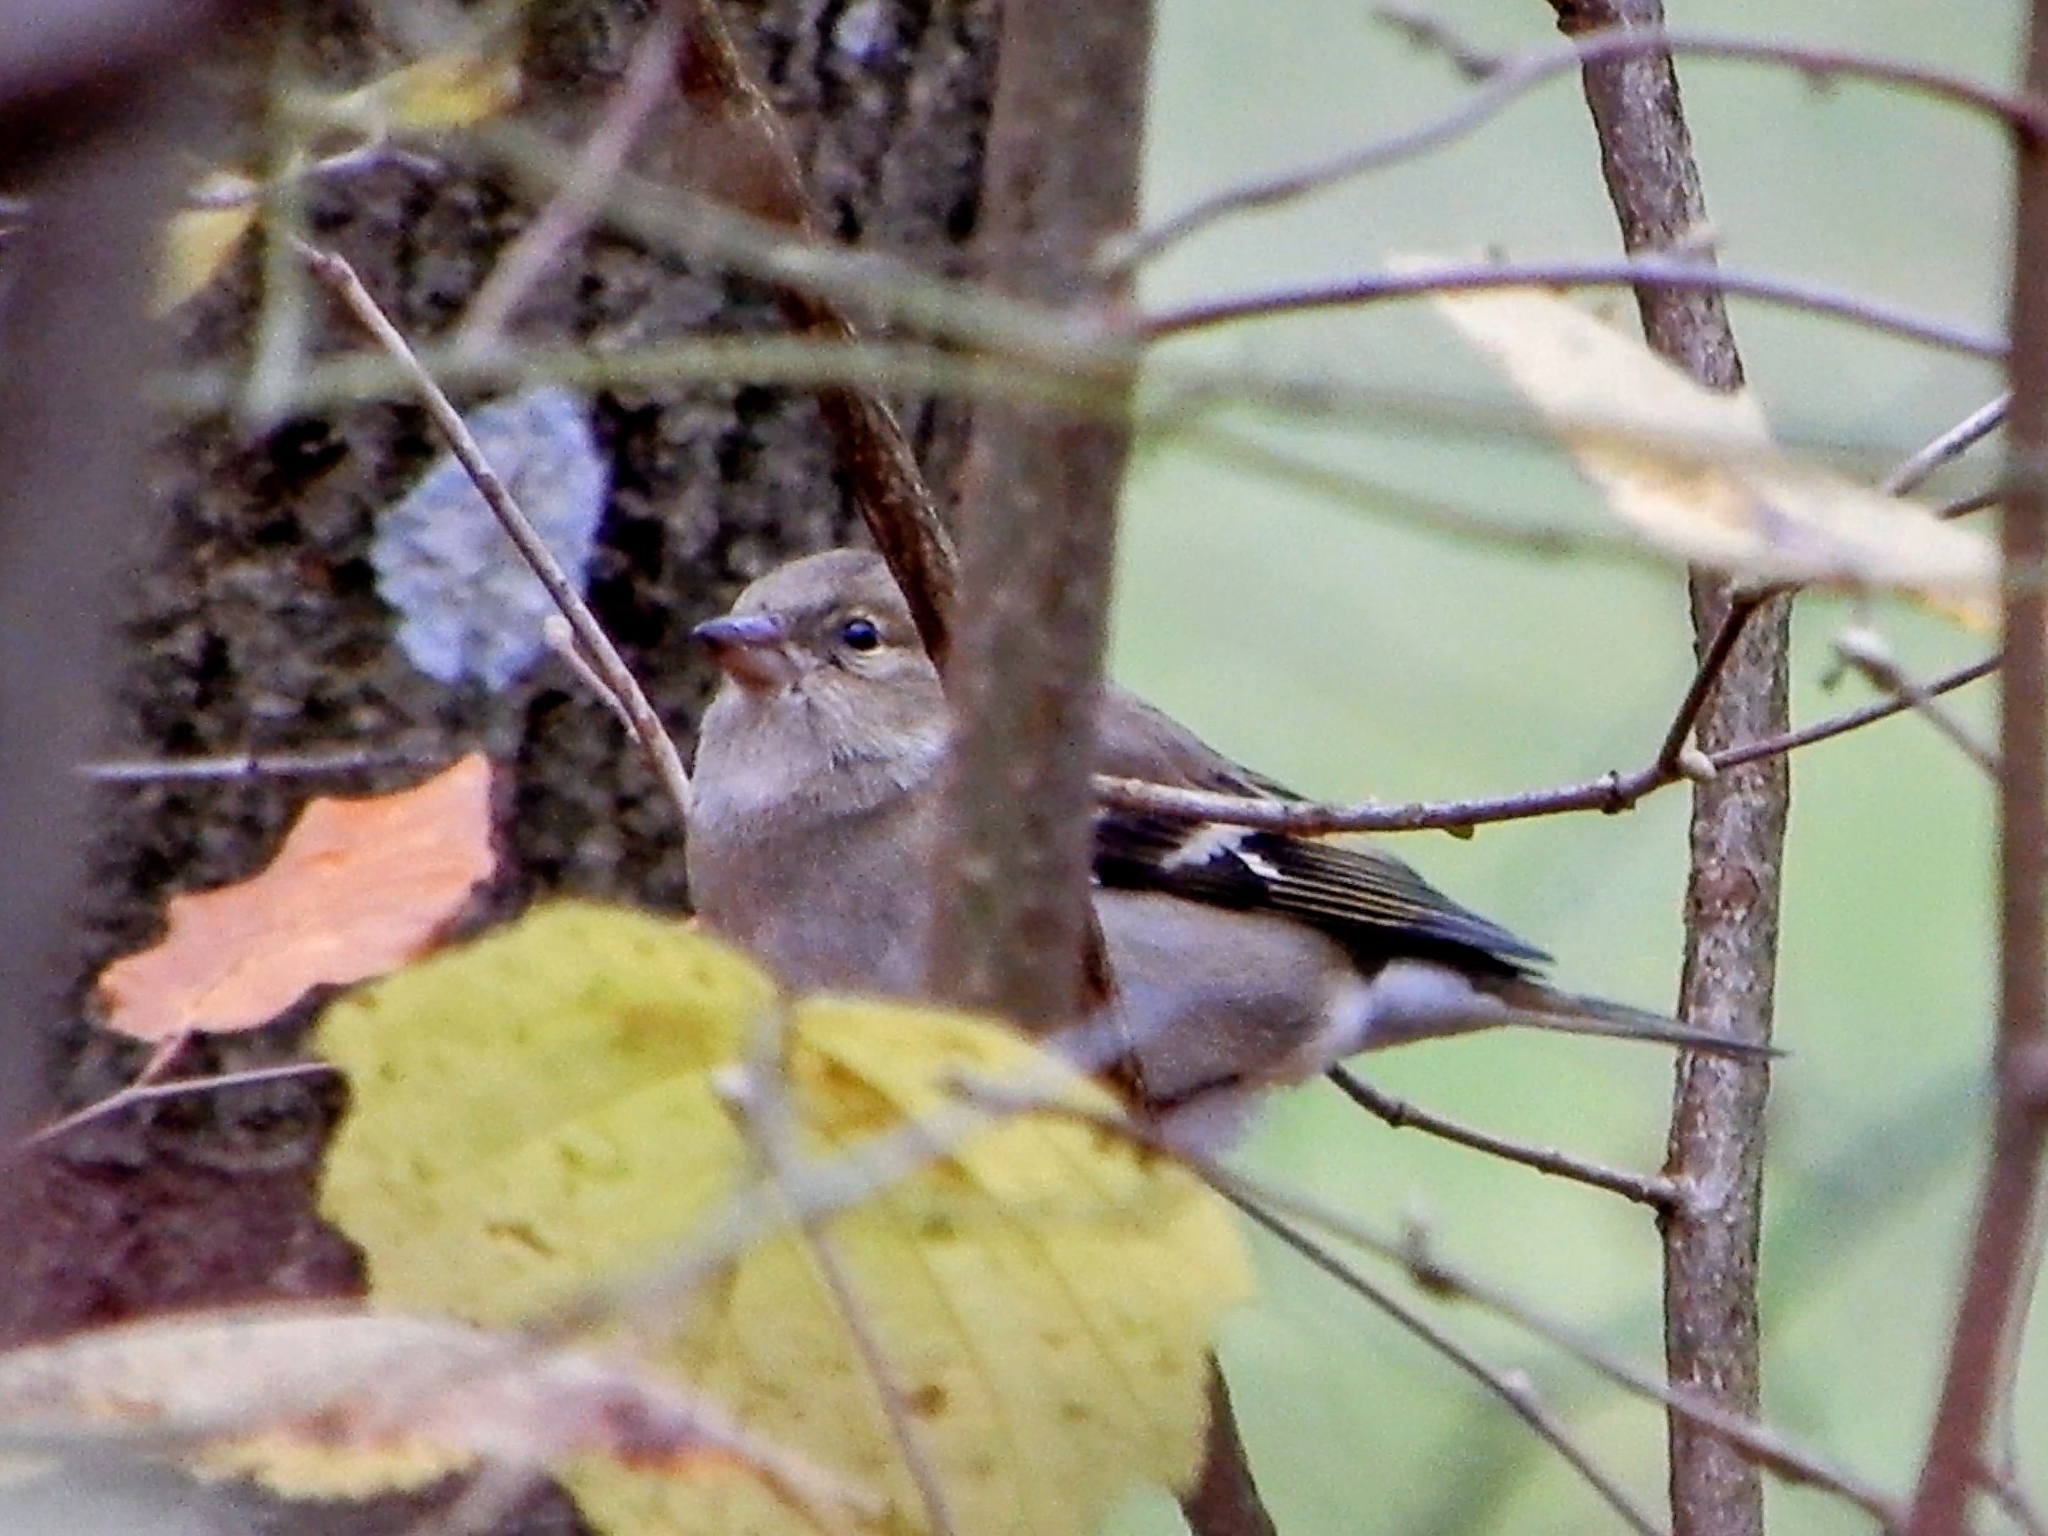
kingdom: Animalia
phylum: Chordata
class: Aves
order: Passeriformes
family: Fringillidae
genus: Fringilla
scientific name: Fringilla coelebs
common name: Common chaffinch
